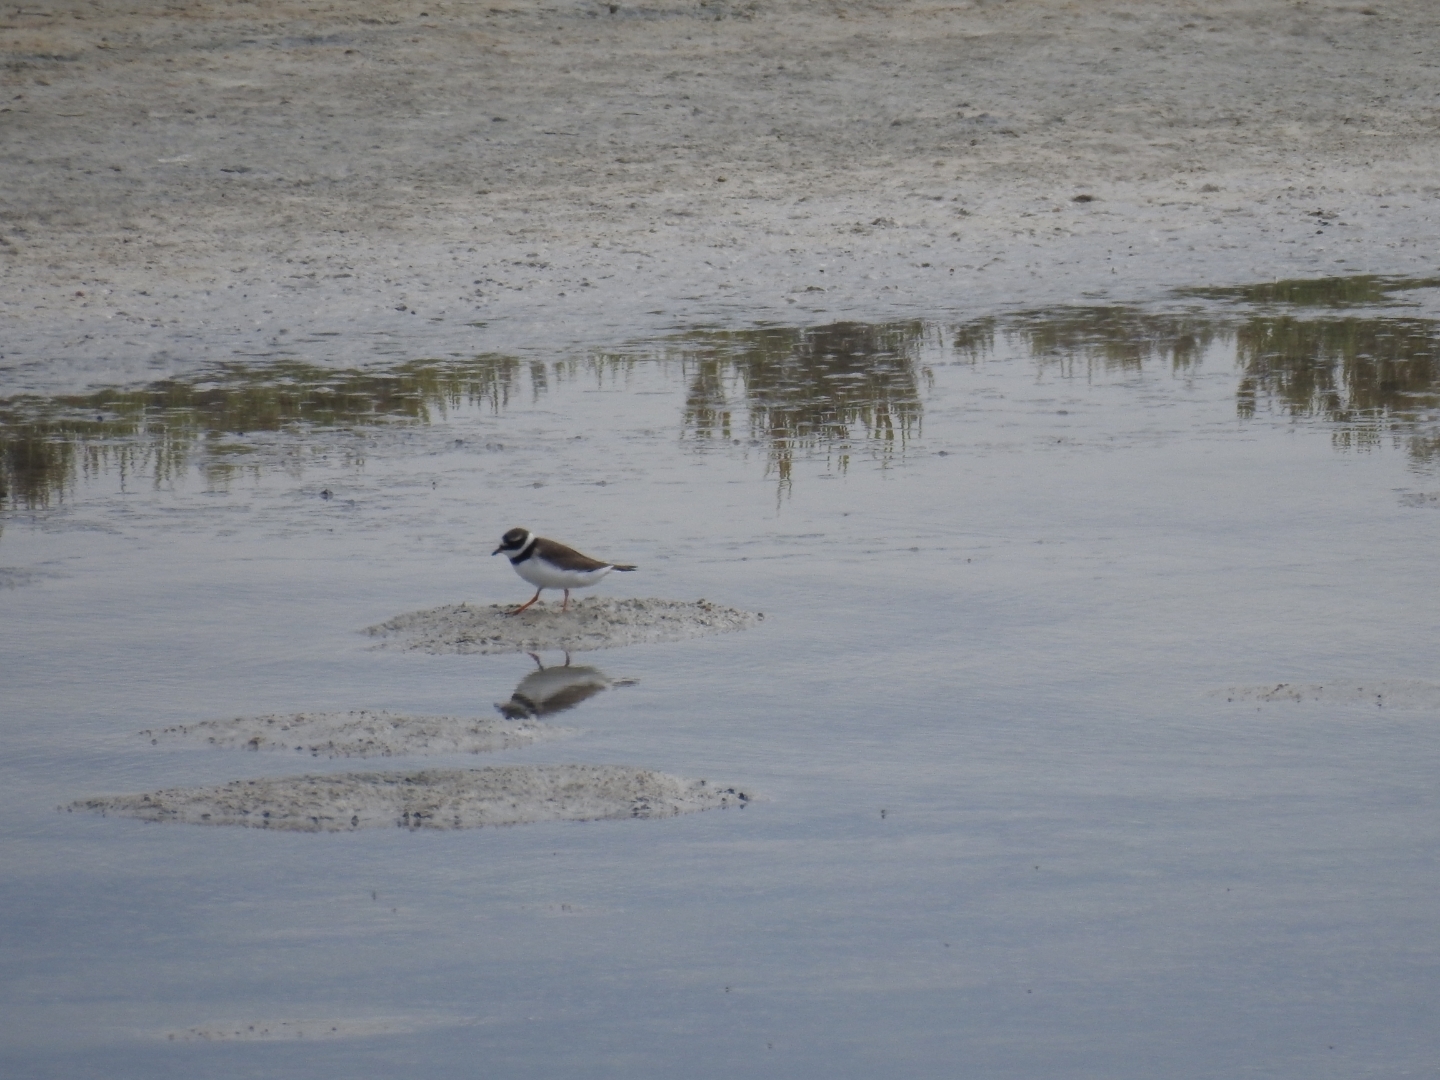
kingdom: Animalia
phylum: Chordata
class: Aves
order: Charadriiformes
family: Charadriidae
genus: Charadrius
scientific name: Charadrius hiaticula
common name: Common ringed plover
